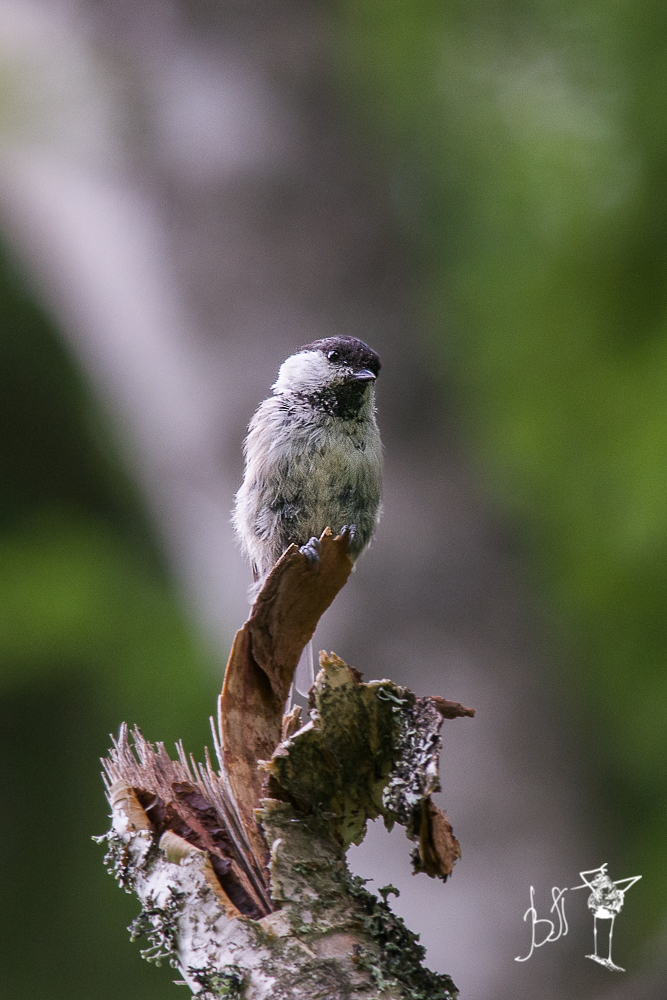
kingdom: Animalia
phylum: Chordata
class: Aves
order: Passeriformes
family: Paridae
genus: Poecile
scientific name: Poecile montanus
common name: Willow tit
